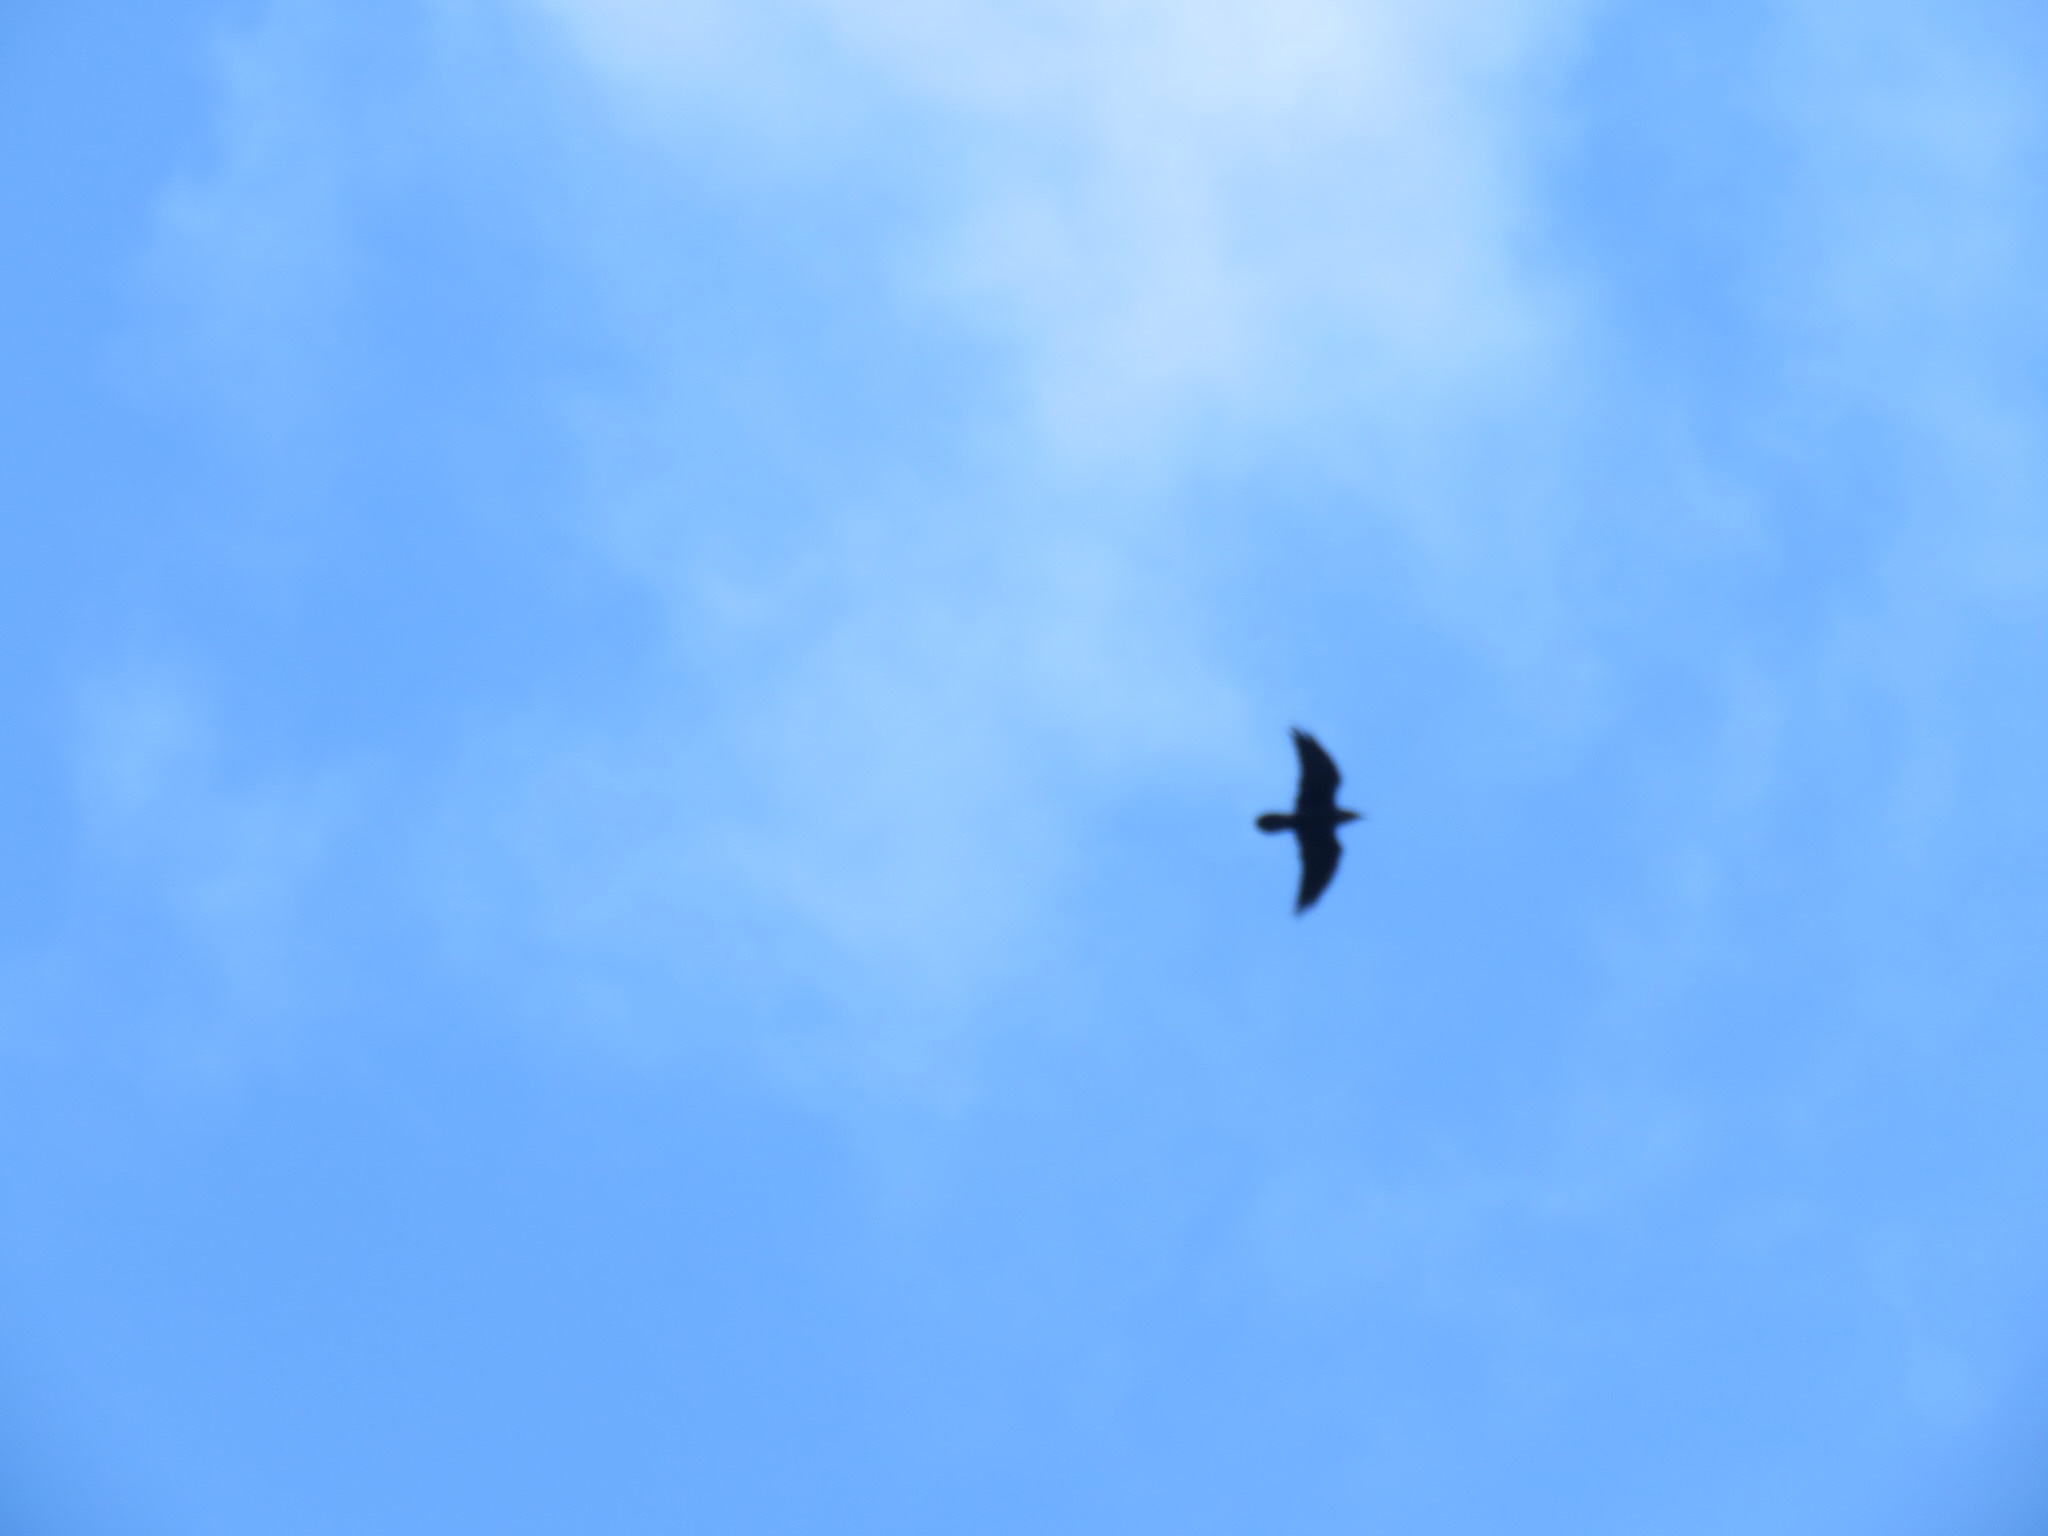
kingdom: Animalia
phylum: Chordata
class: Aves
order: Passeriformes
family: Corvidae
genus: Corvus
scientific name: Corvus corax
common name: Common raven
